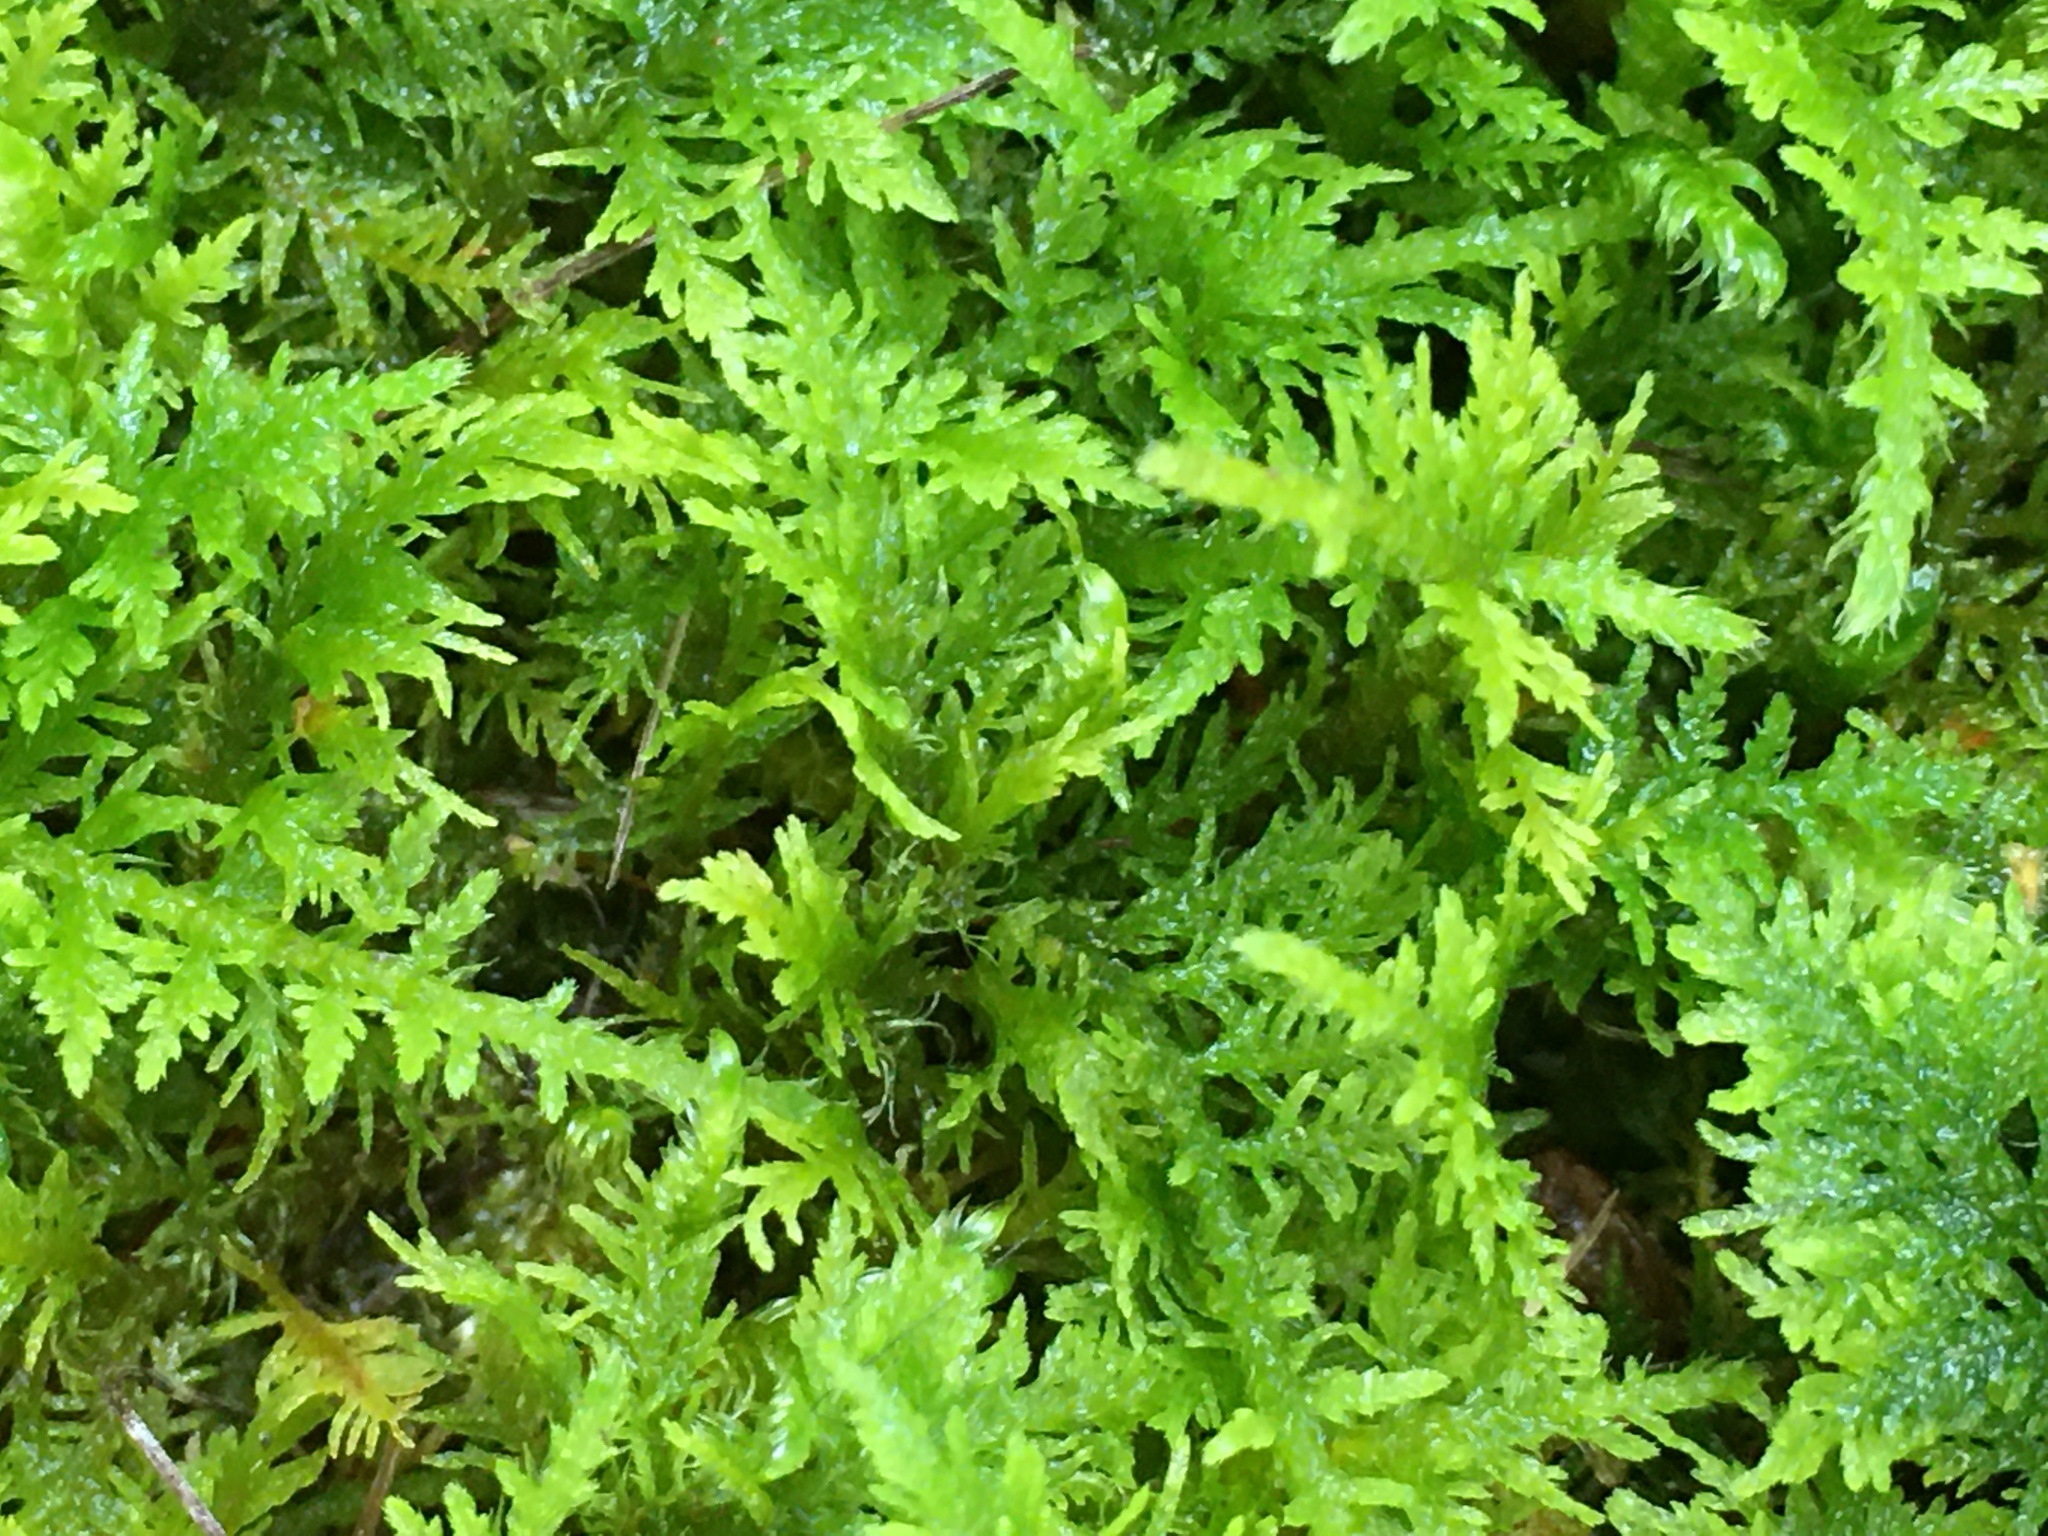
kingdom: Plantae
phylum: Bryophyta
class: Bryopsida
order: Hypnales
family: Thuidiaceae
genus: Thuidium
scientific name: Thuidium delicatulum
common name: Delicate fern moss
